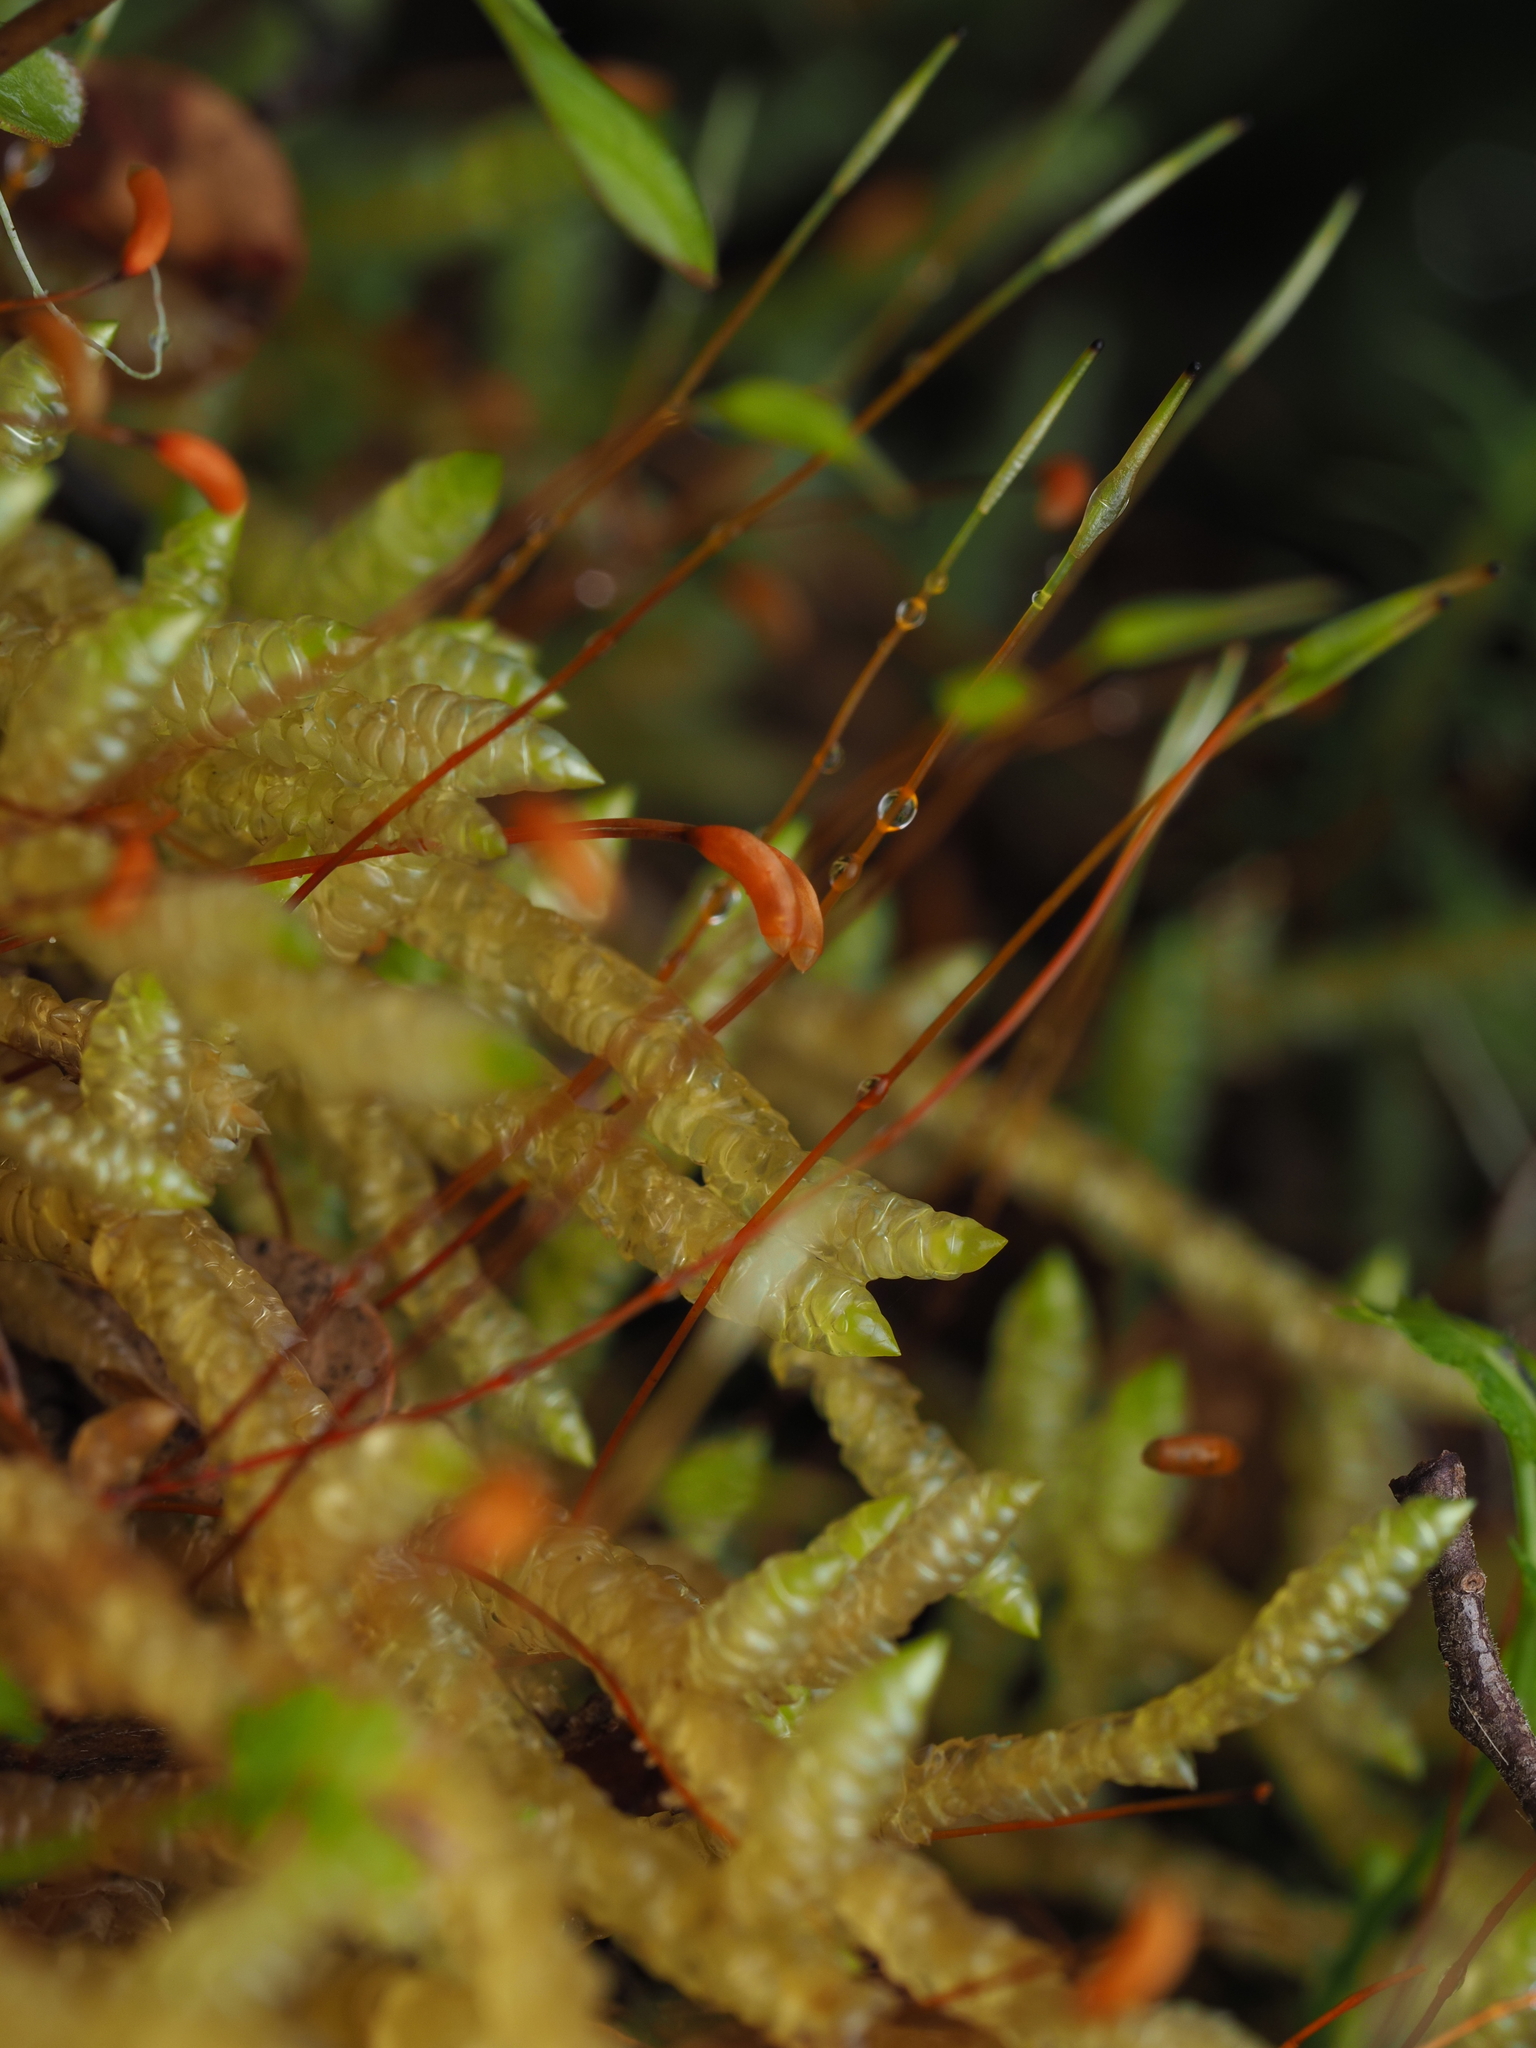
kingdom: Plantae
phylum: Bryophyta
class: Bryopsida
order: Hypnales
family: Acrocladiaceae
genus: Acrocladium
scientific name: Acrocladium chlamydophyllum
